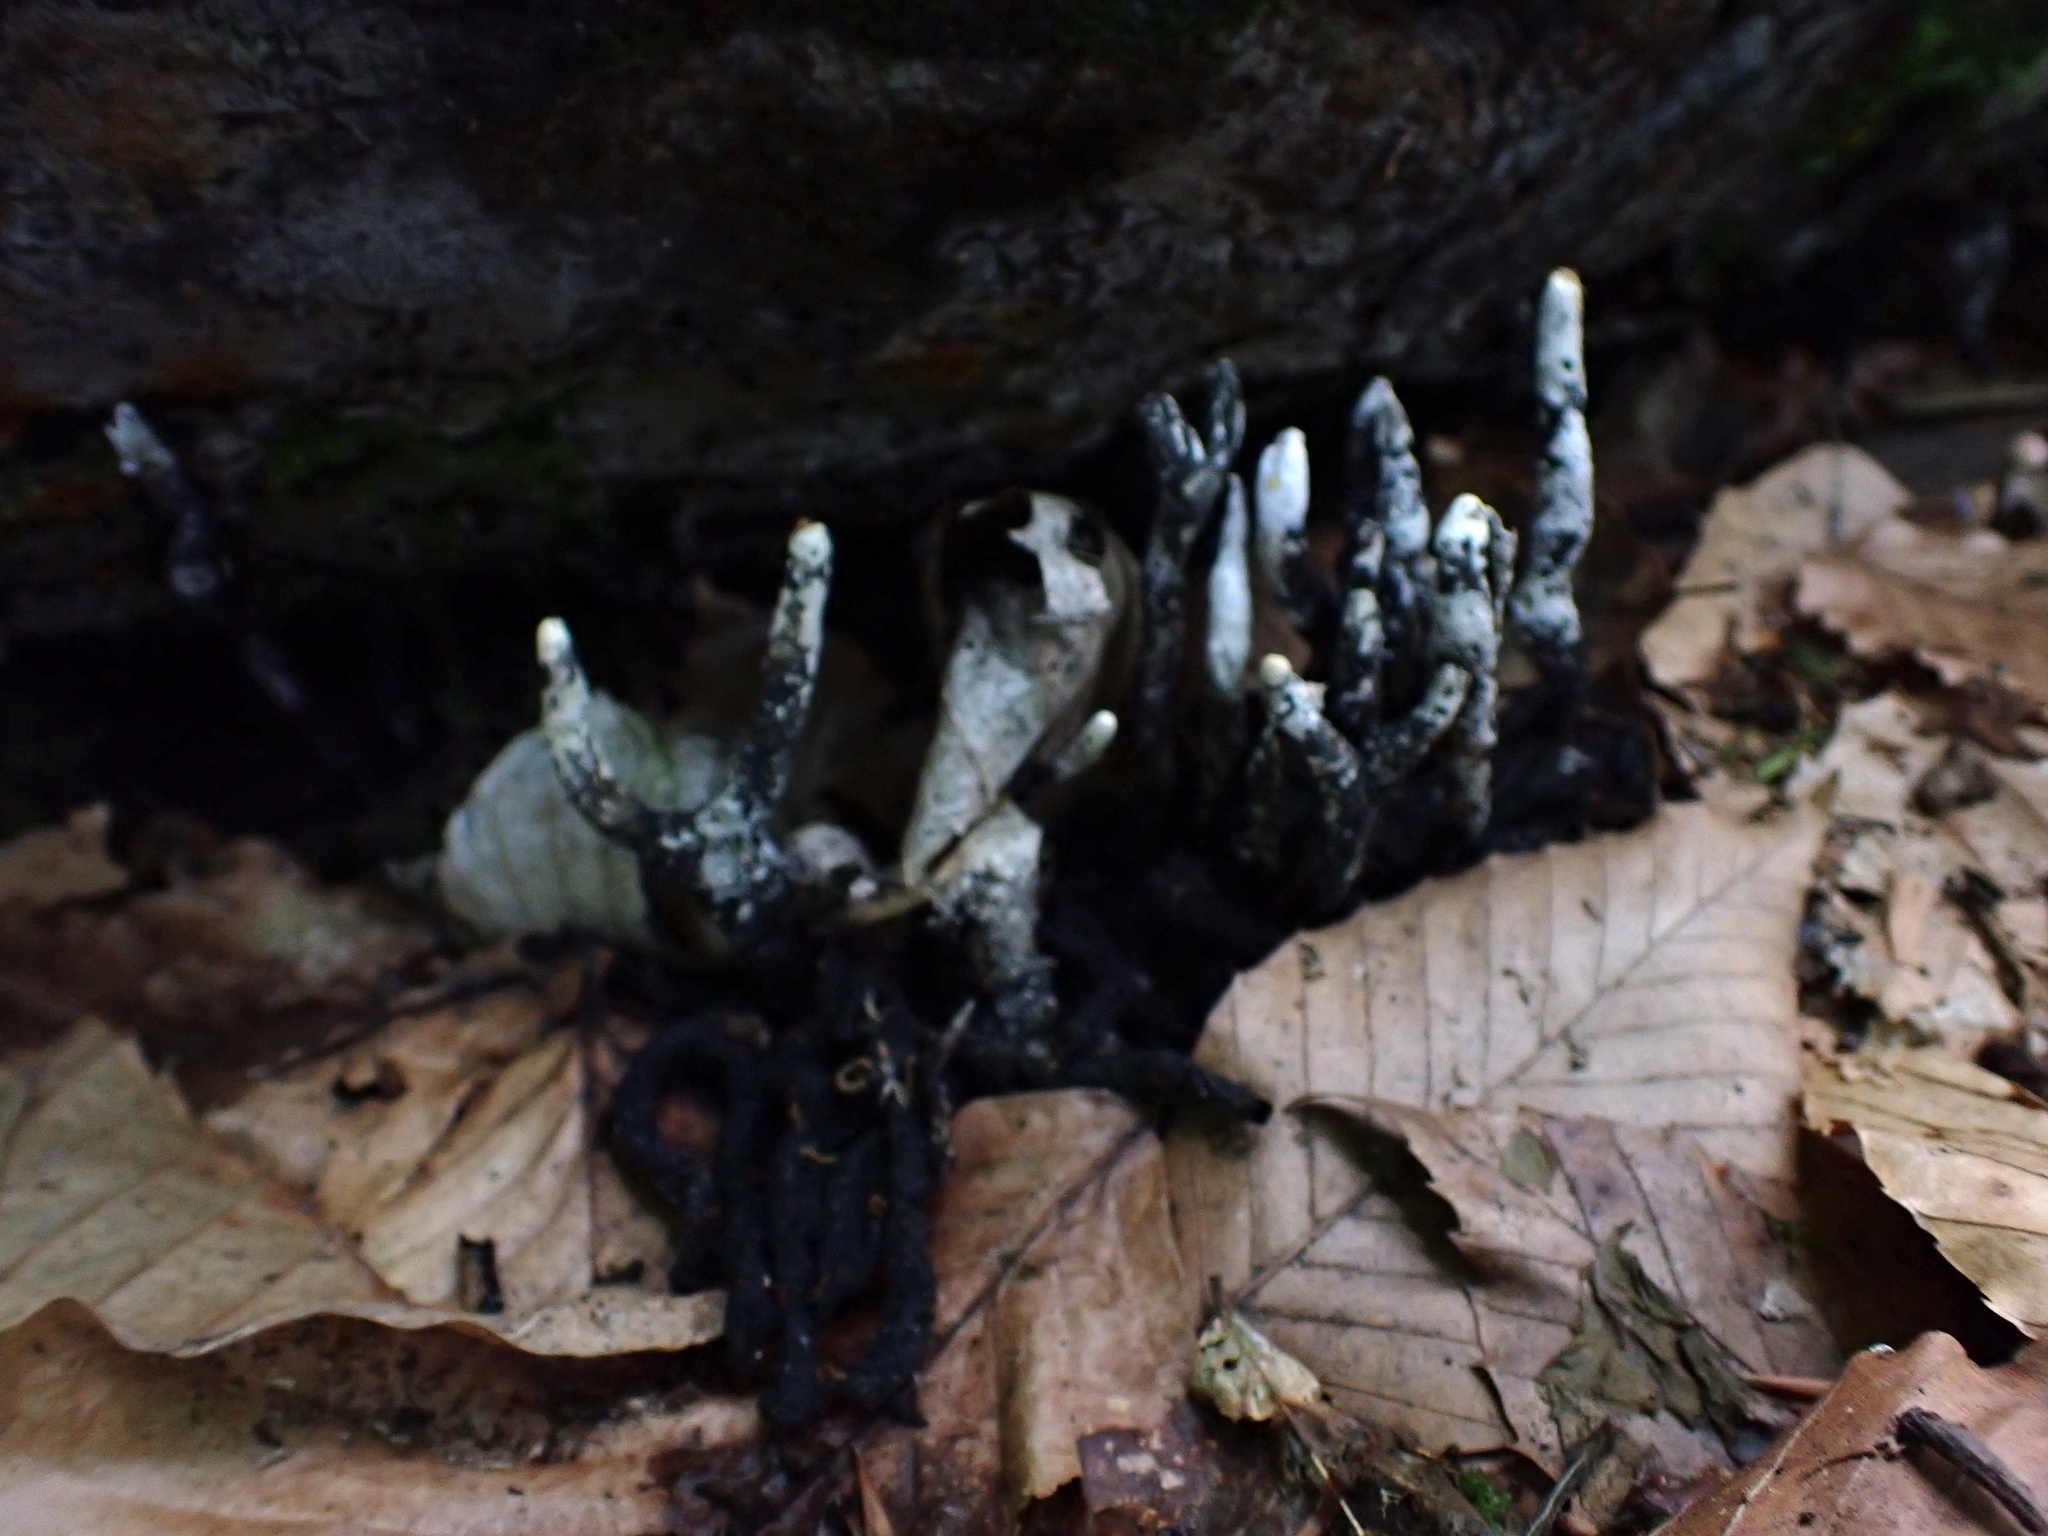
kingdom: Fungi
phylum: Ascomycota
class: Sordariomycetes
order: Xylariales
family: Xylariaceae
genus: Xylaria
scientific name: Xylaria hypoxylon
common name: Candle-snuff fungus
